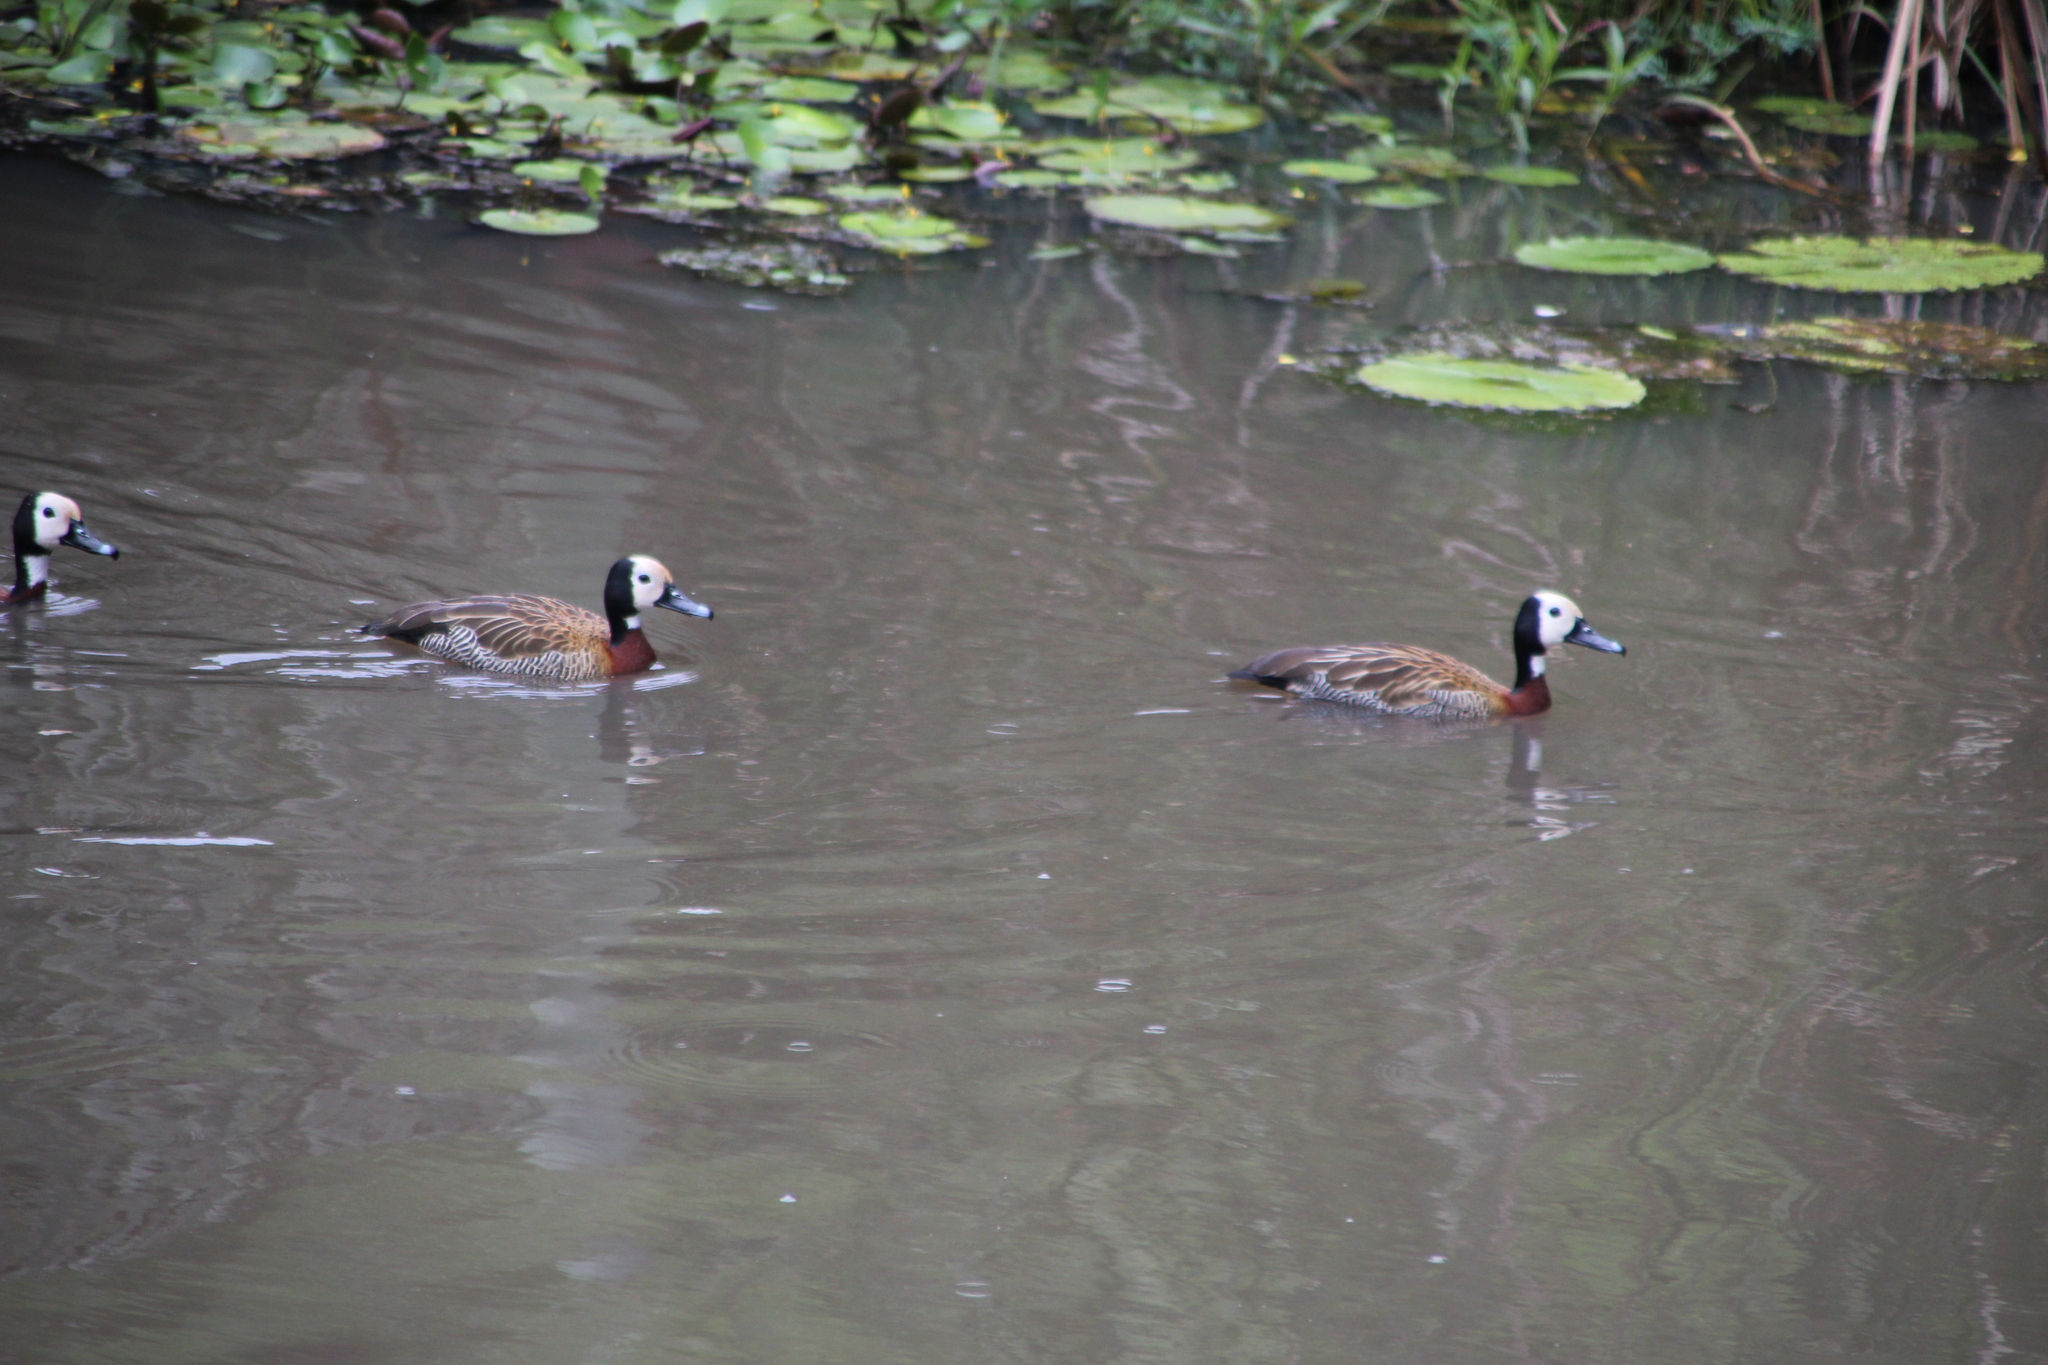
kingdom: Animalia
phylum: Chordata
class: Aves
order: Anseriformes
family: Anatidae
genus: Dendrocygna
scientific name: Dendrocygna viduata
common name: White-faced whistling duck
